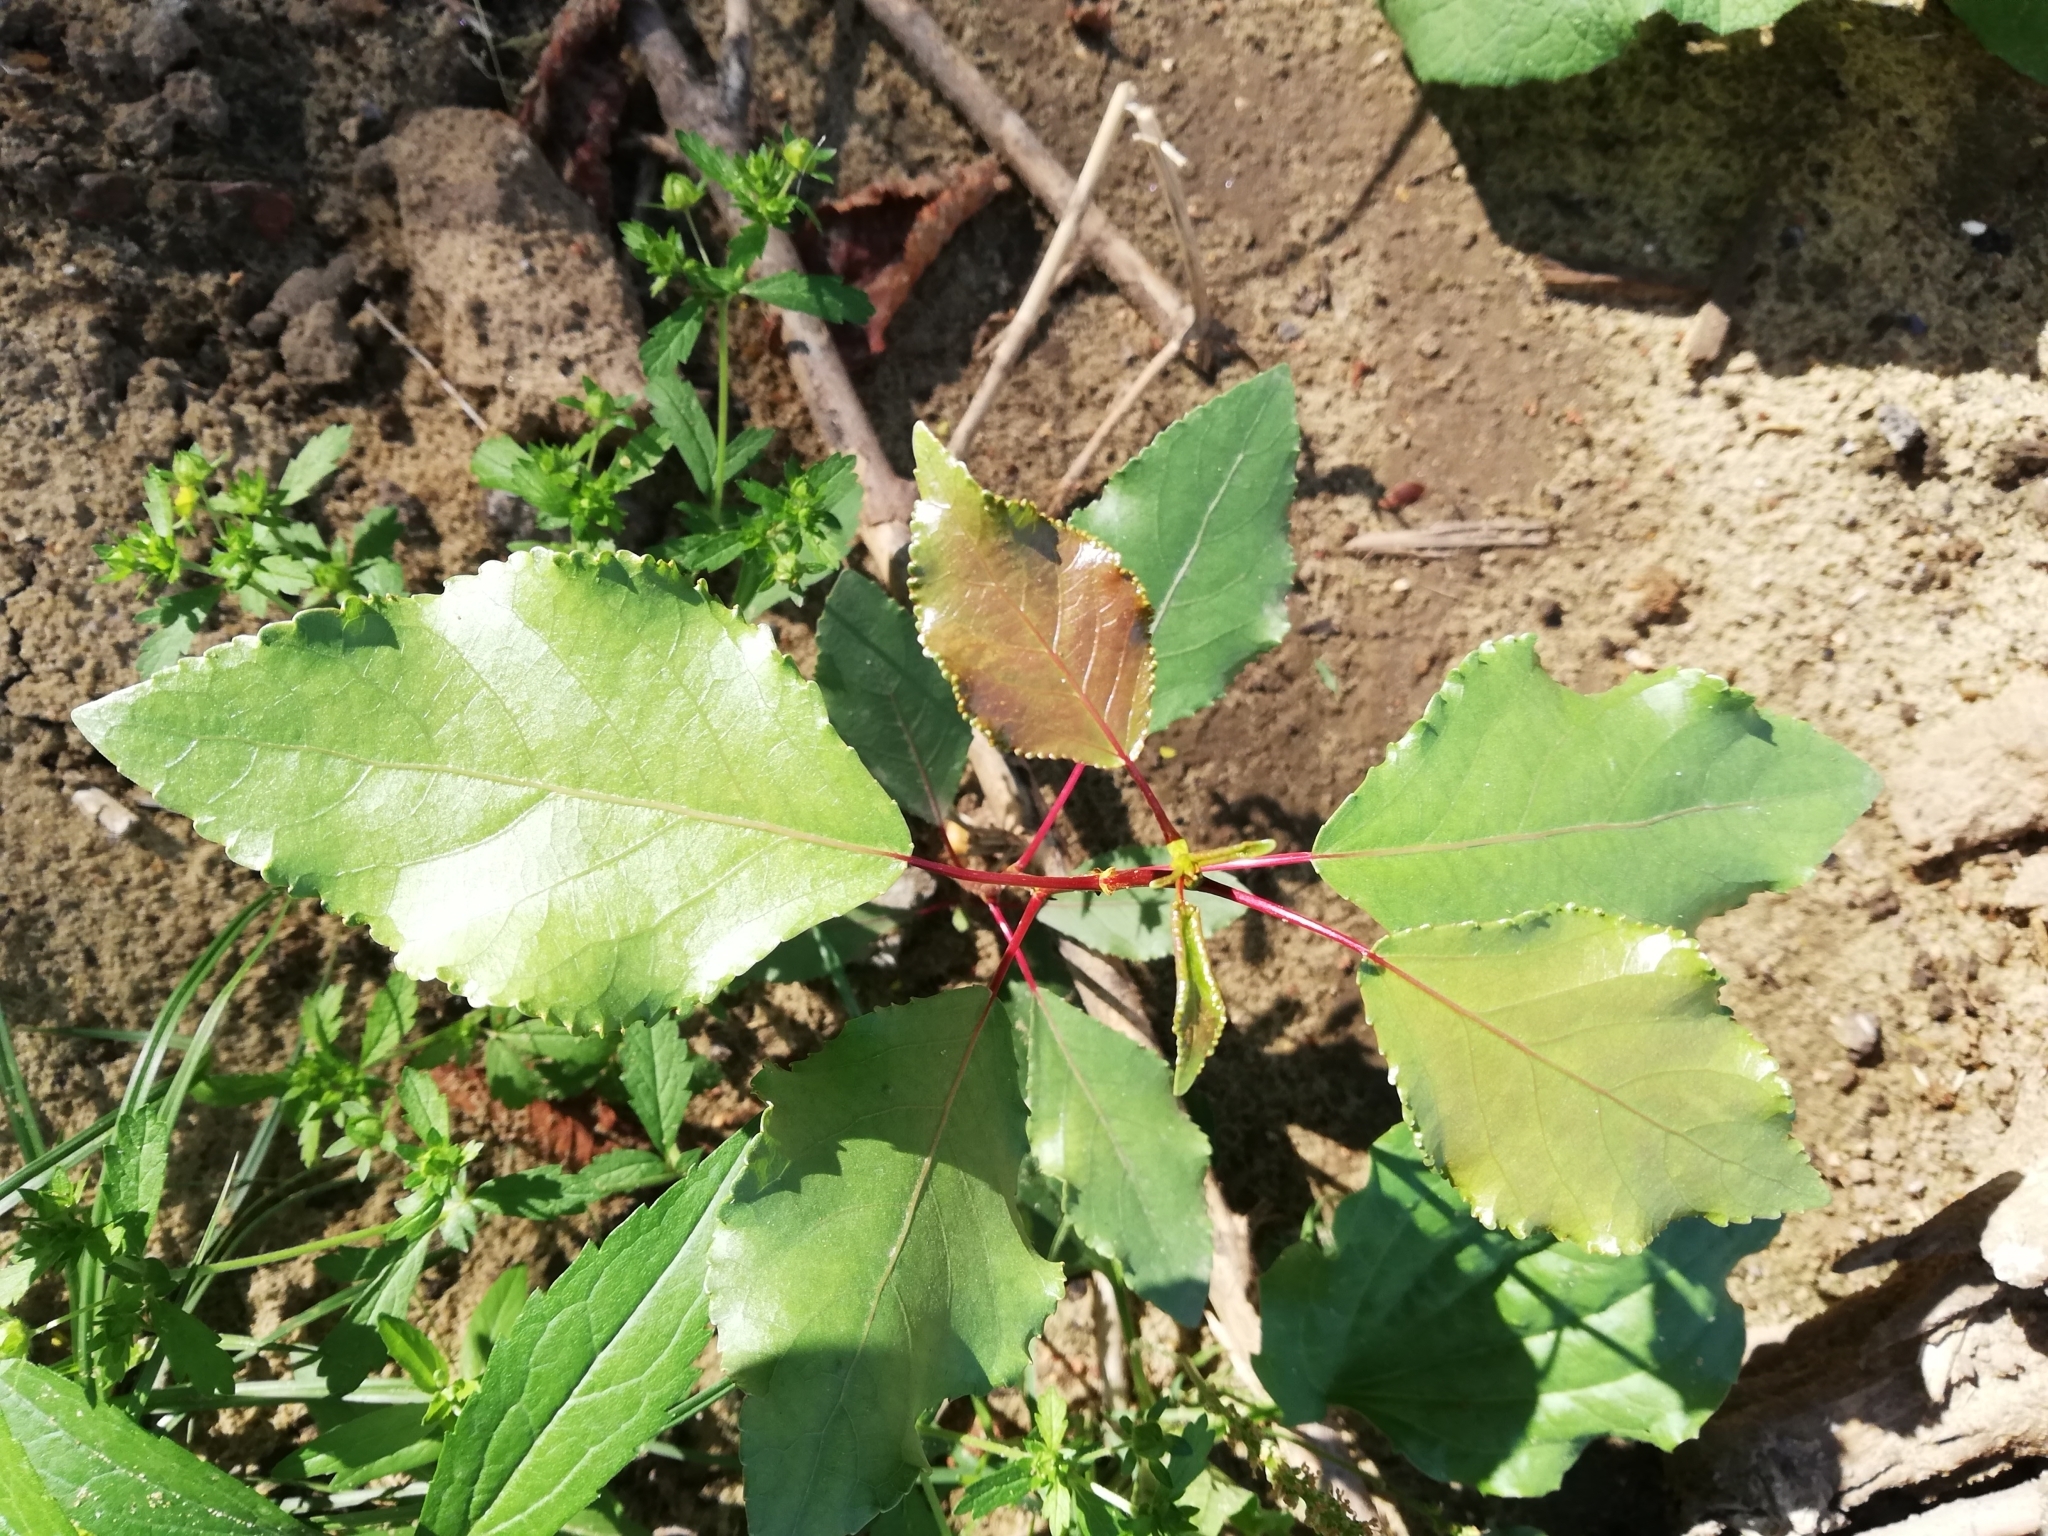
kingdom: Plantae
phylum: Tracheophyta
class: Magnoliopsida
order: Malpighiales
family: Salicaceae
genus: Populus
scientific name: Populus
